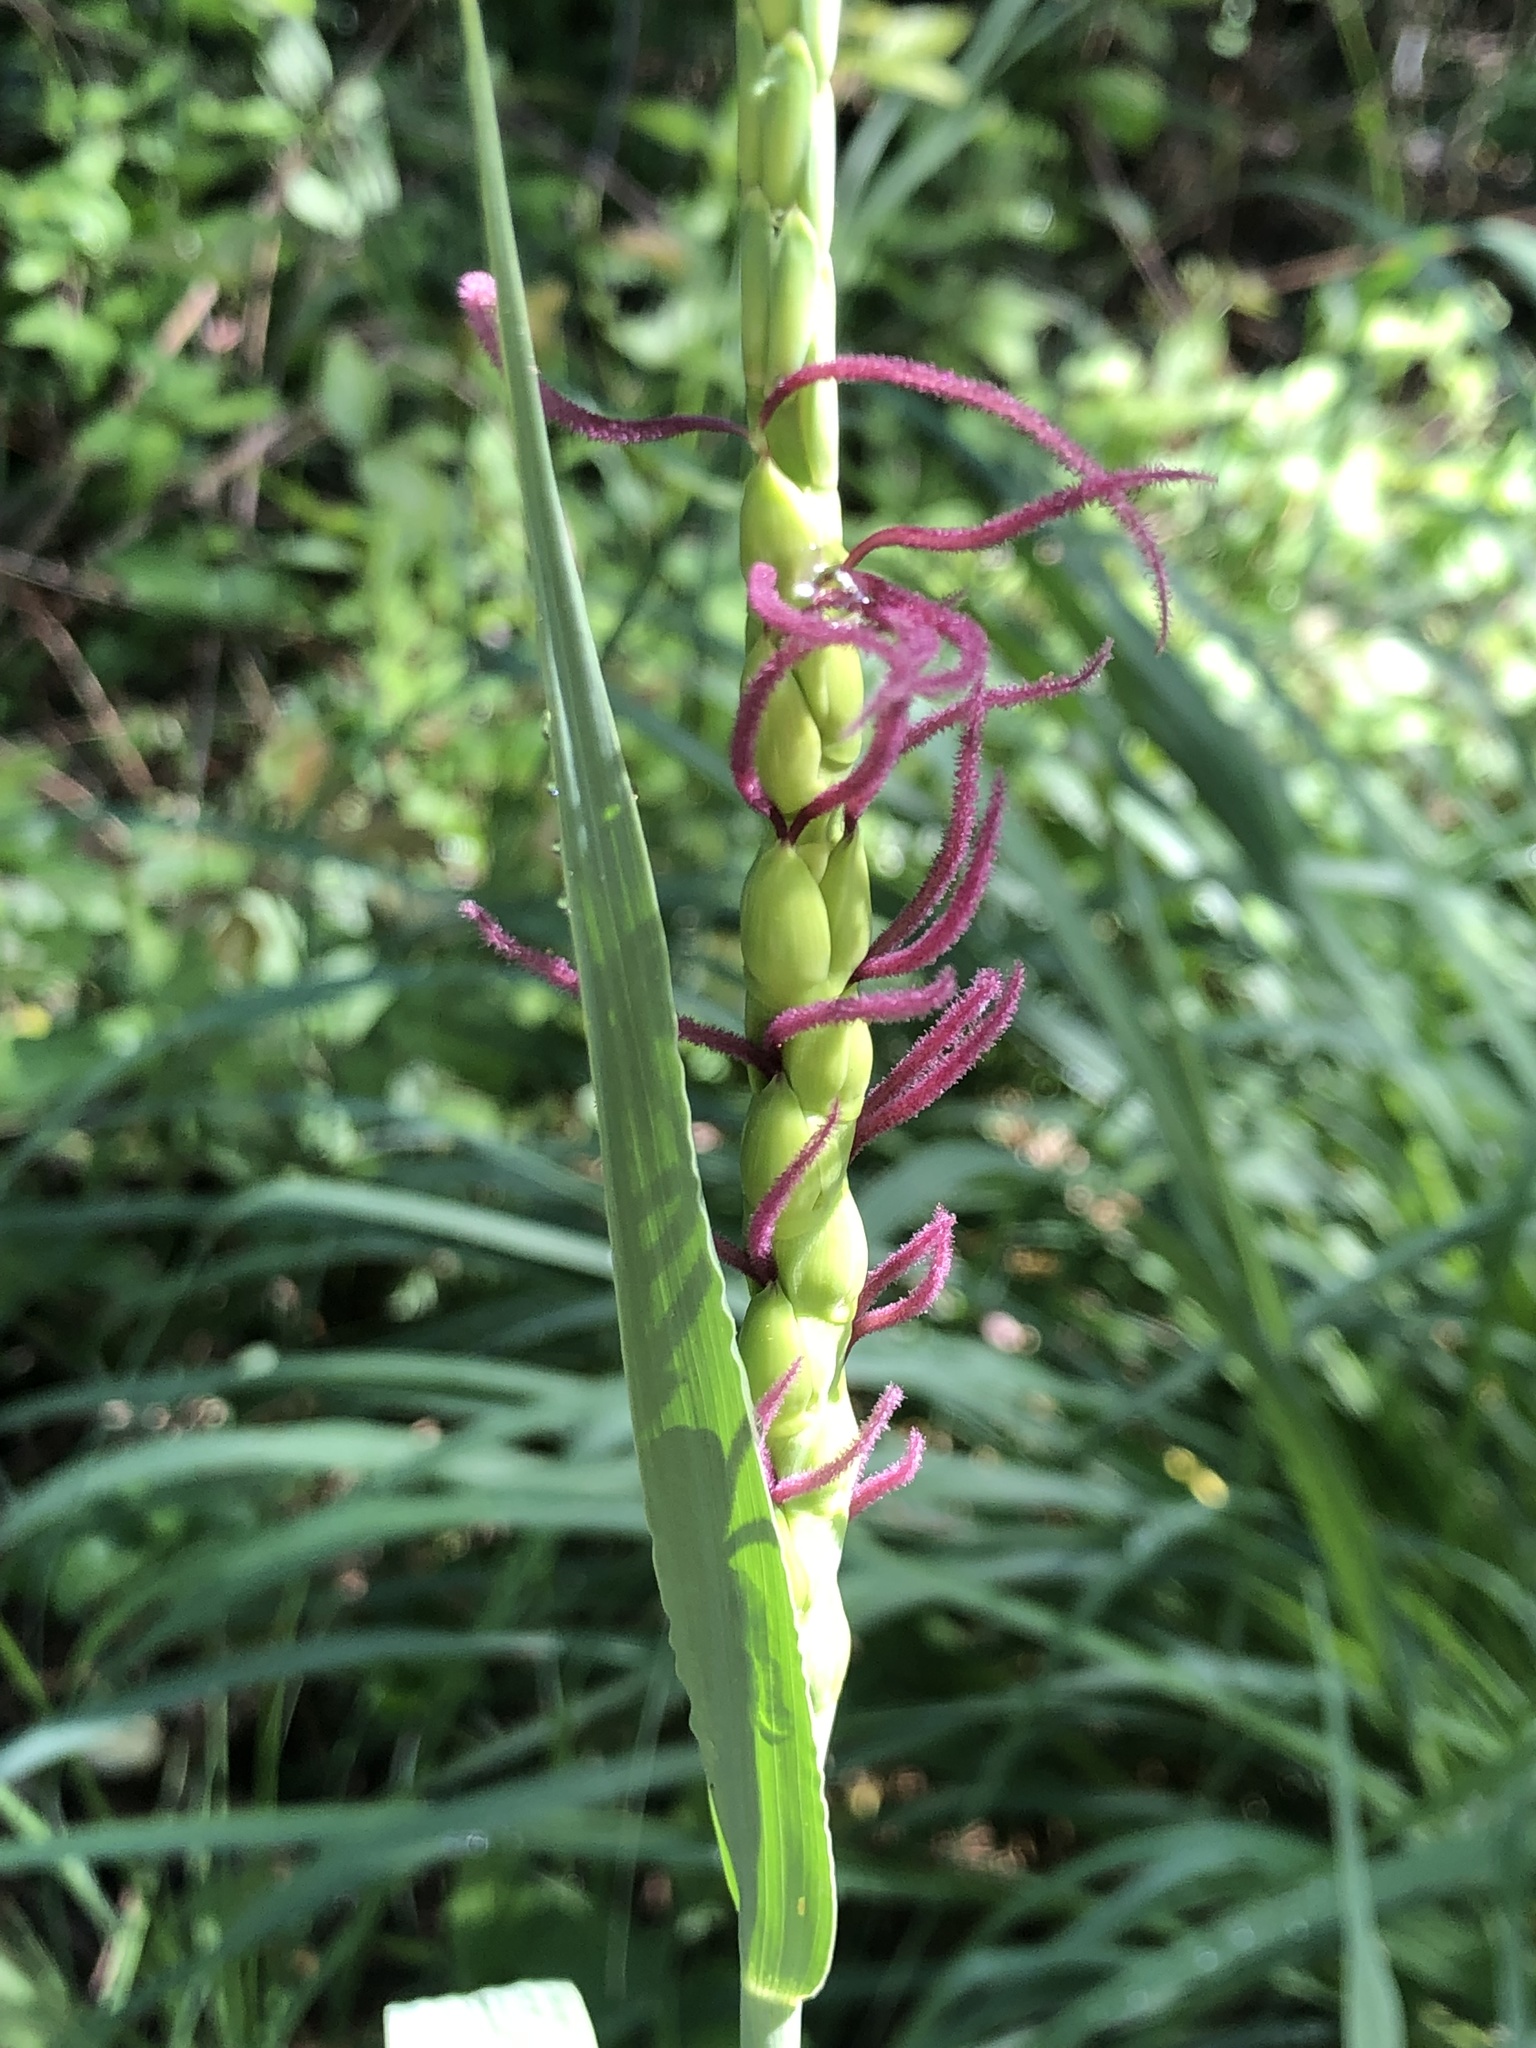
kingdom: Plantae
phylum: Tracheophyta
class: Liliopsida
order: Poales
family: Poaceae
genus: Tripsacum
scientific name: Tripsacum dactyloides
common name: Buffalo-grass
